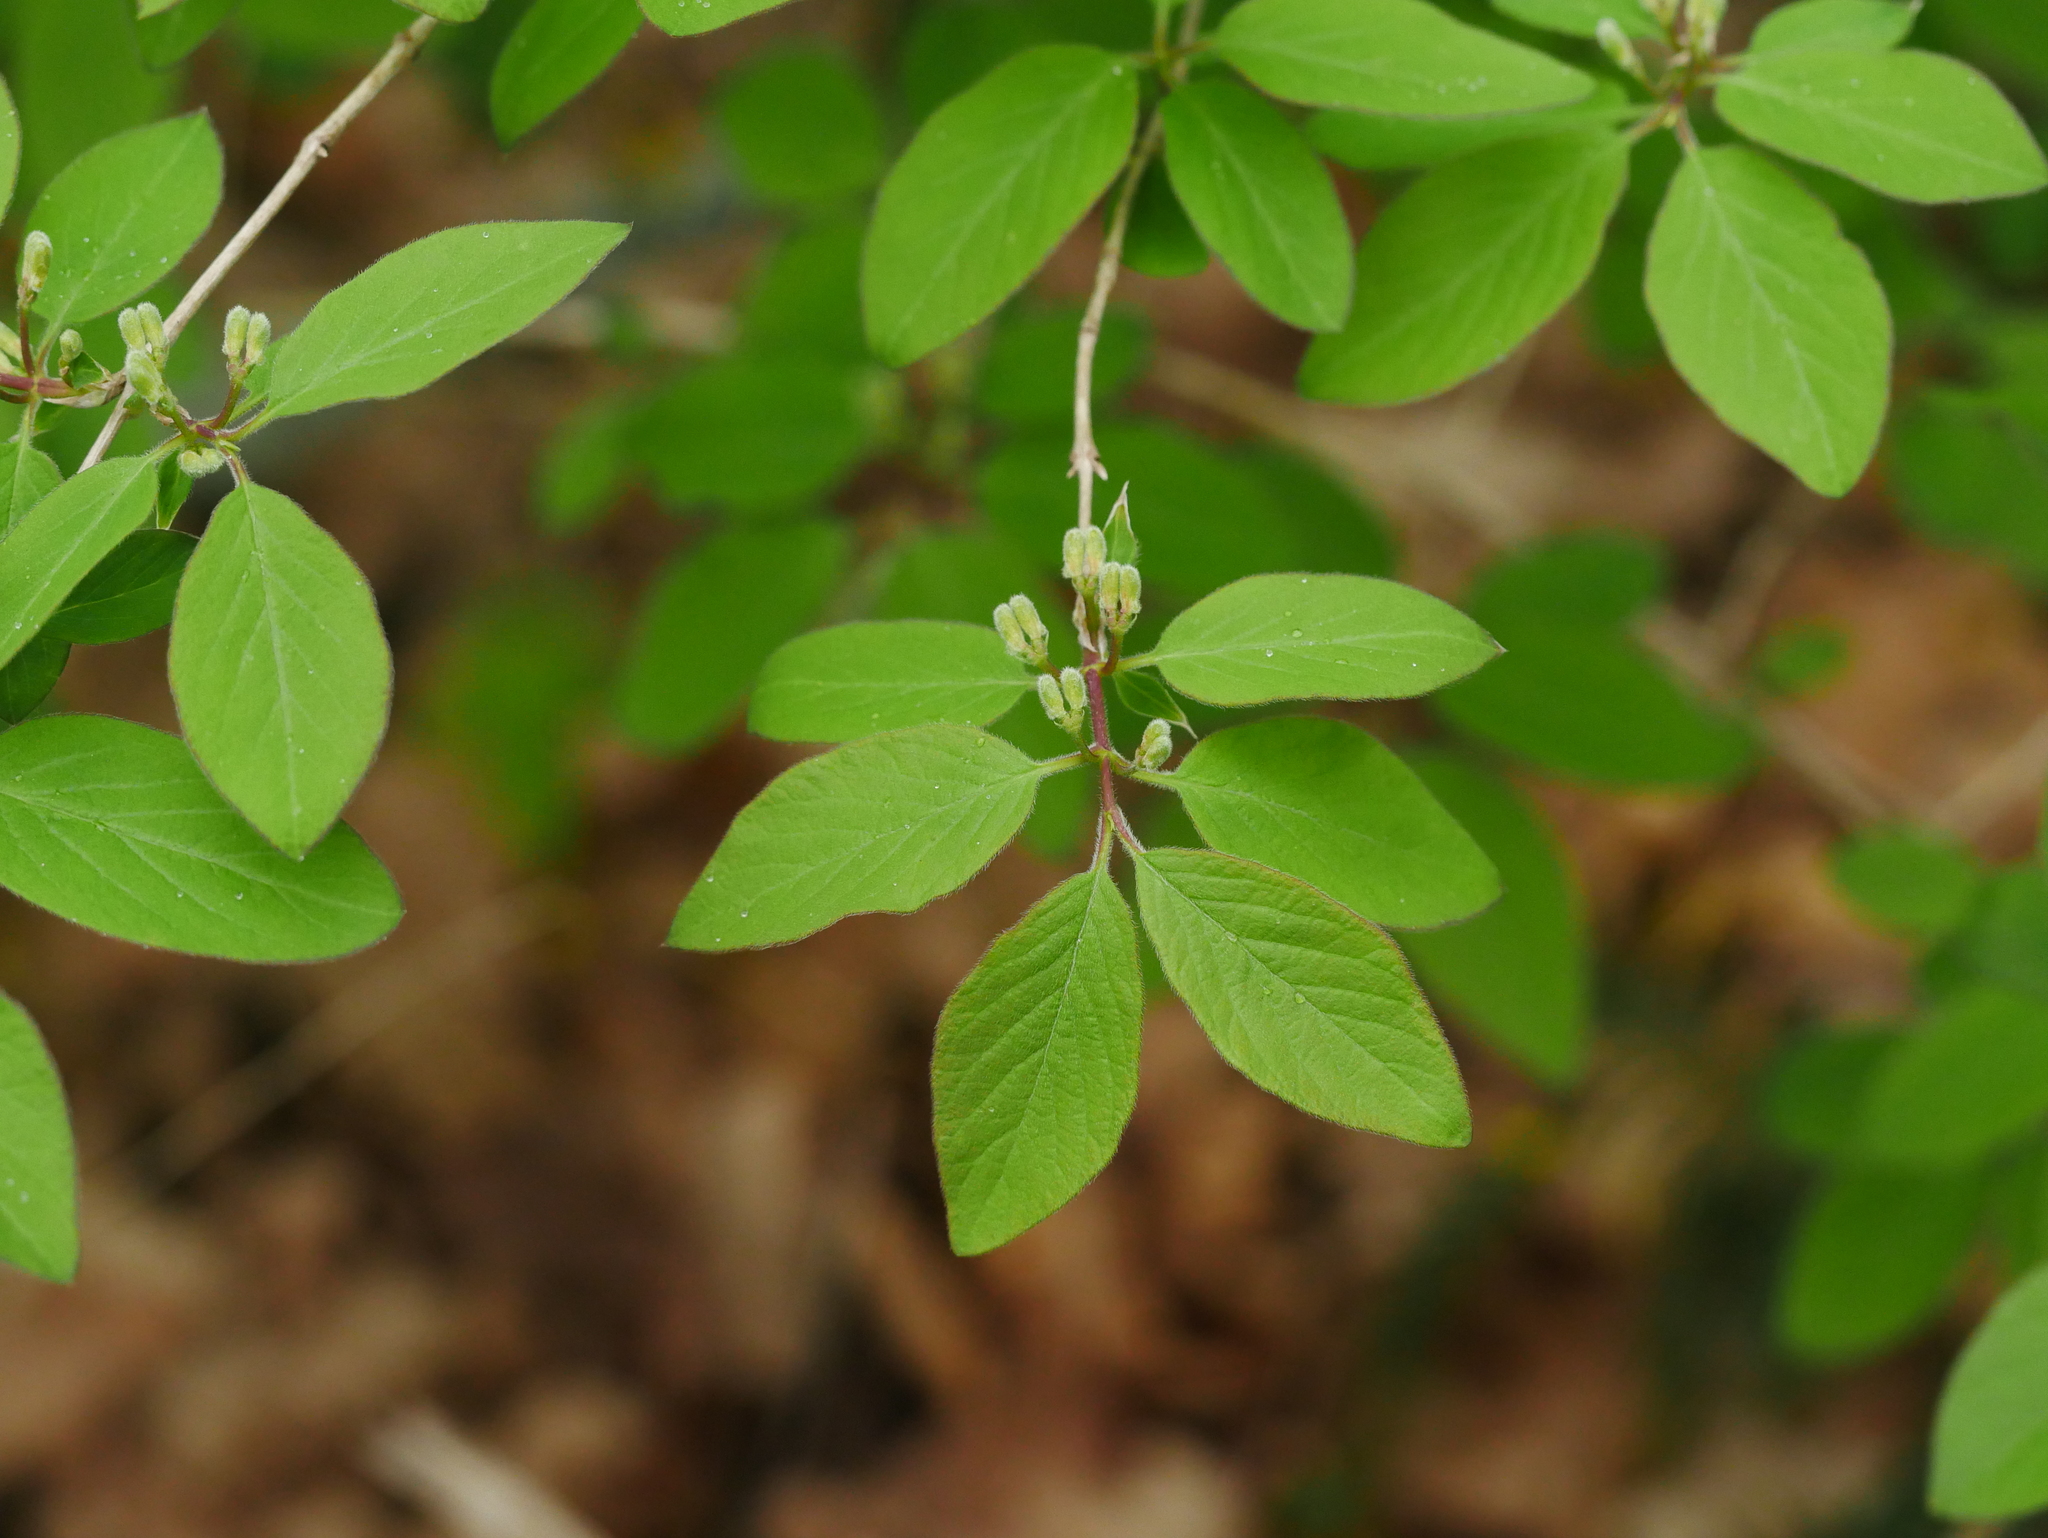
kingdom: Plantae
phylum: Tracheophyta
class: Magnoliopsida
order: Dipsacales
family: Caprifoliaceae
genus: Lonicera
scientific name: Lonicera xylosteum
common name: Fly honeysuckle
